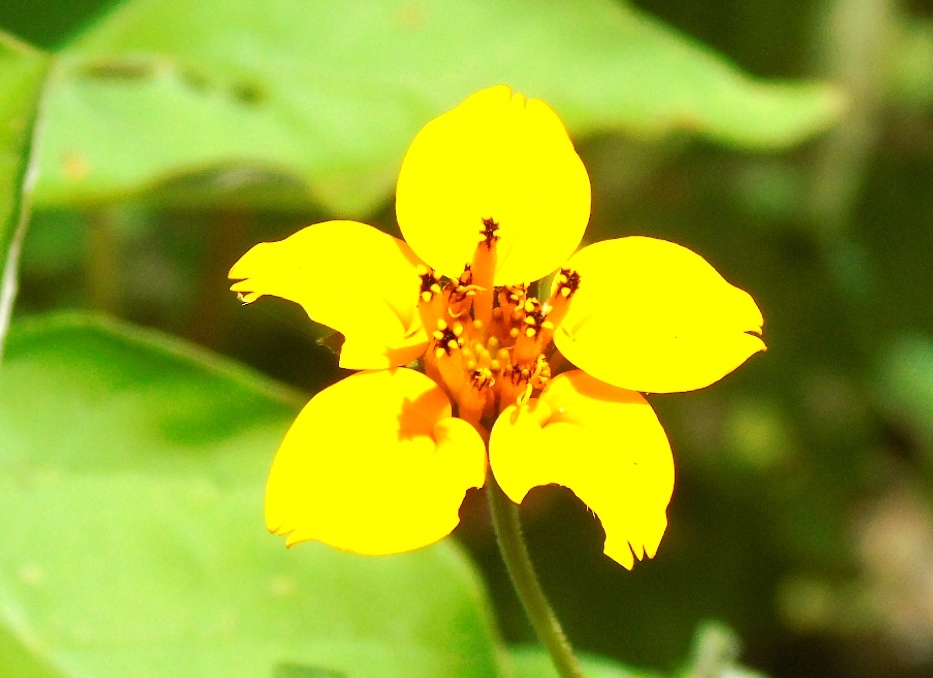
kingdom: Plantae
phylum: Tracheophyta
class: Magnoliopsida
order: Asterales
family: Asteraceae
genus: Sclerocarpus
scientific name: Sclerocarpus divaricatus
